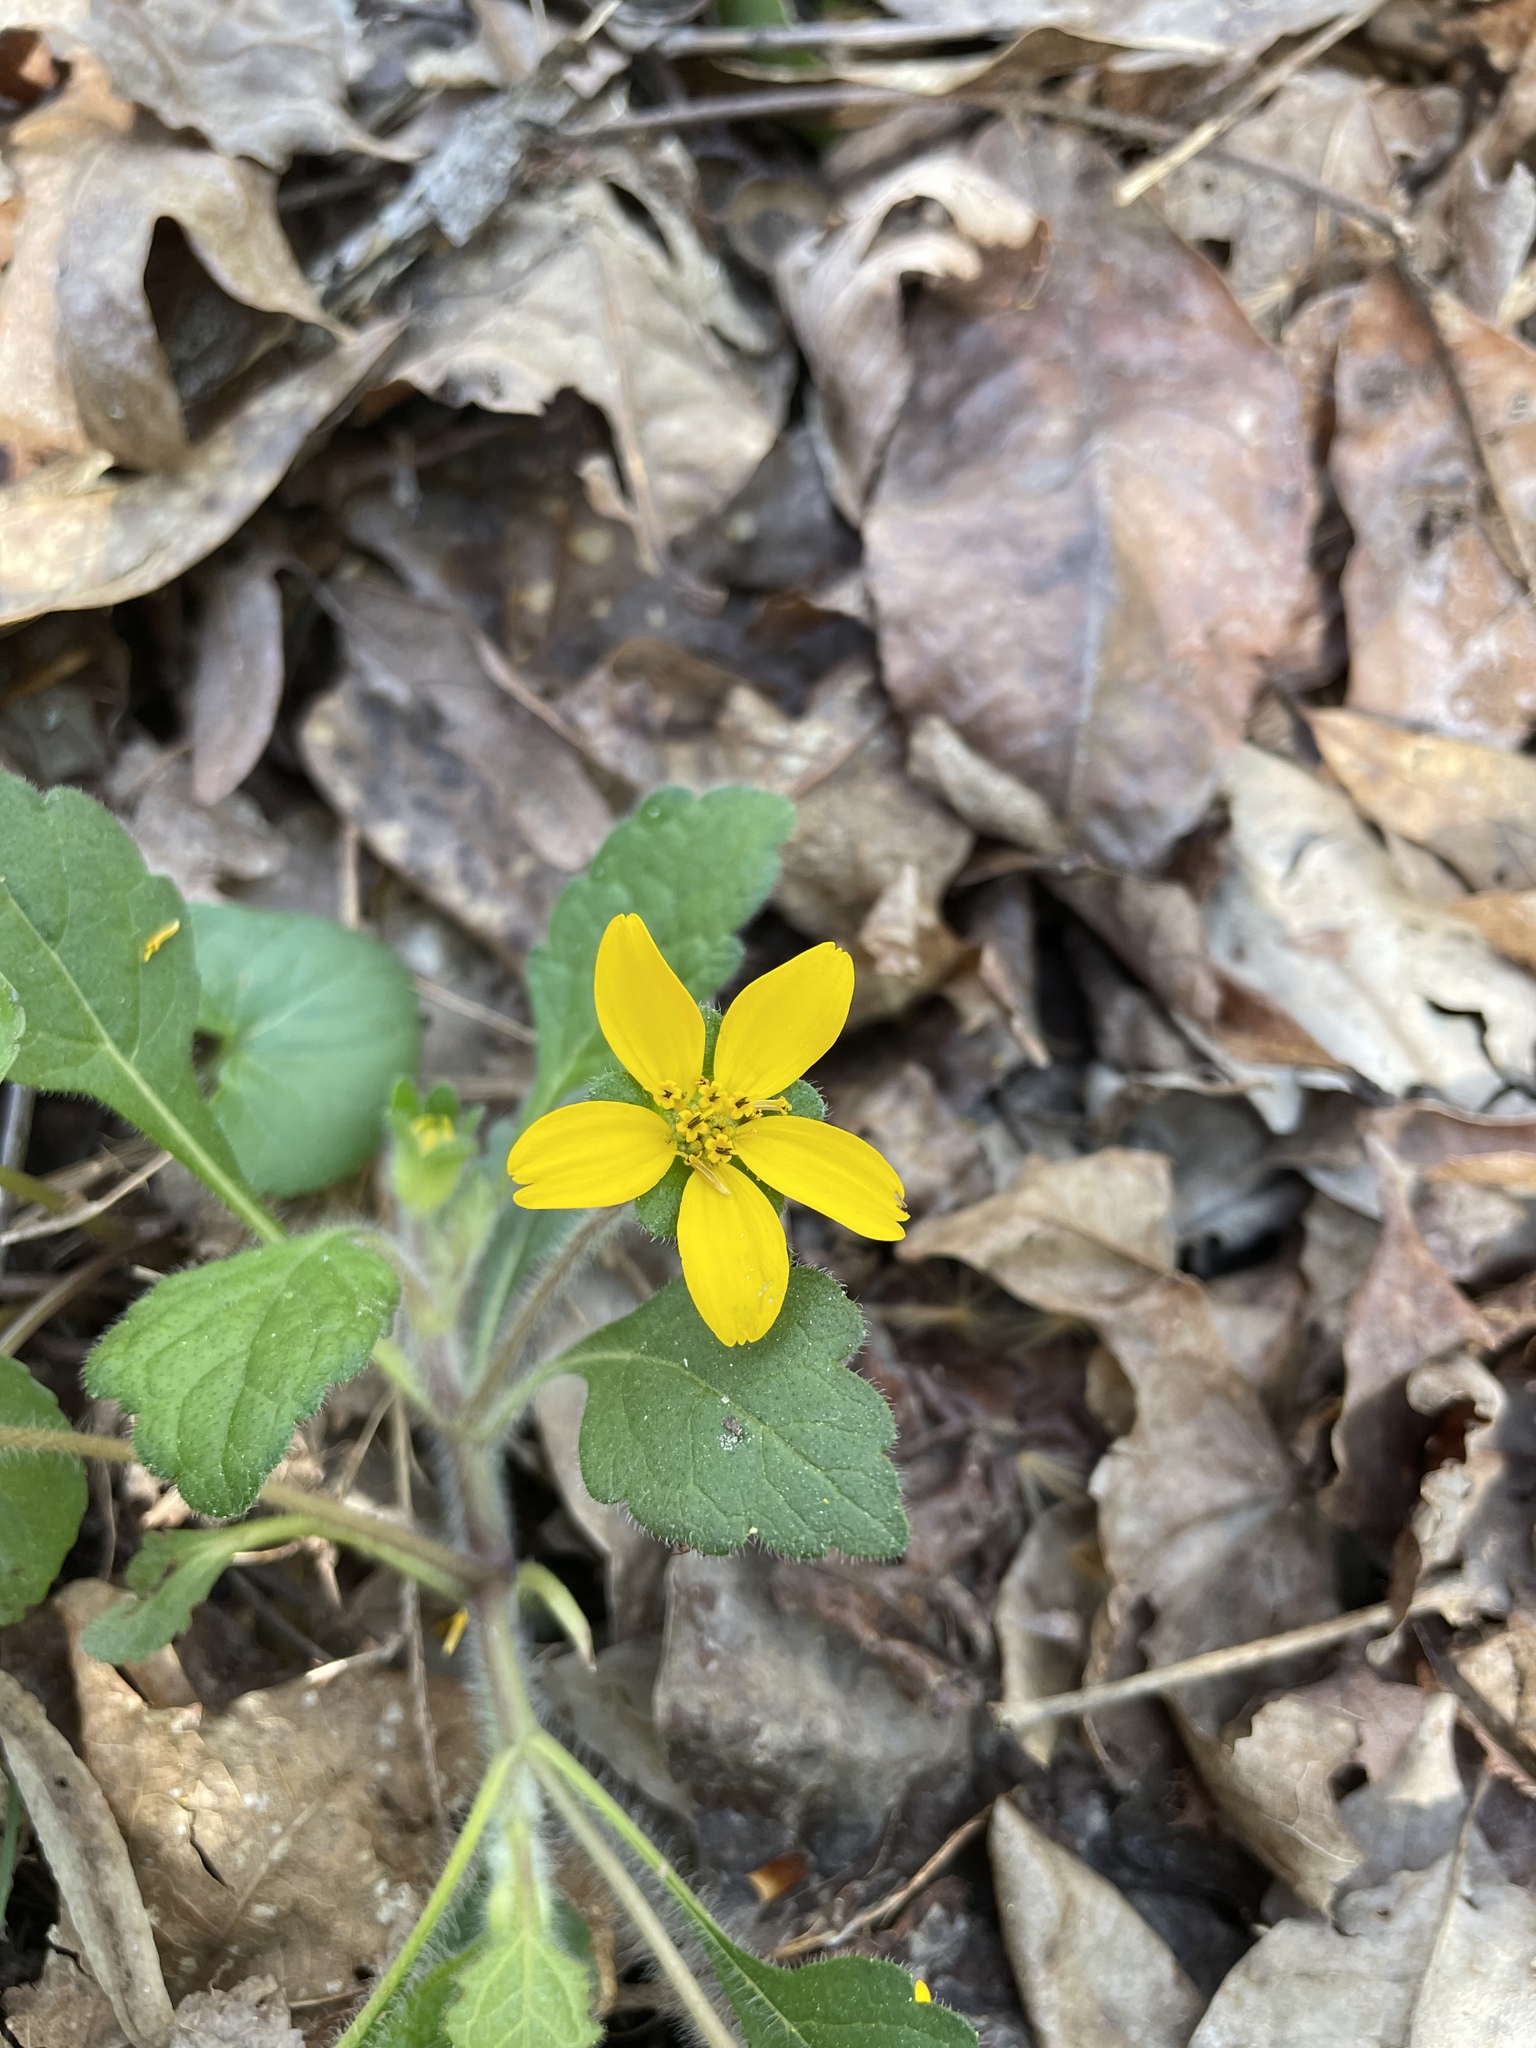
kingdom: Plantae
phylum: Tracheophyta
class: Magnoliopsida
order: Asterales
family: Asteraceae
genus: Chrysogonum
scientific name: Chrysogonum virginianum
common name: Golden-knee
